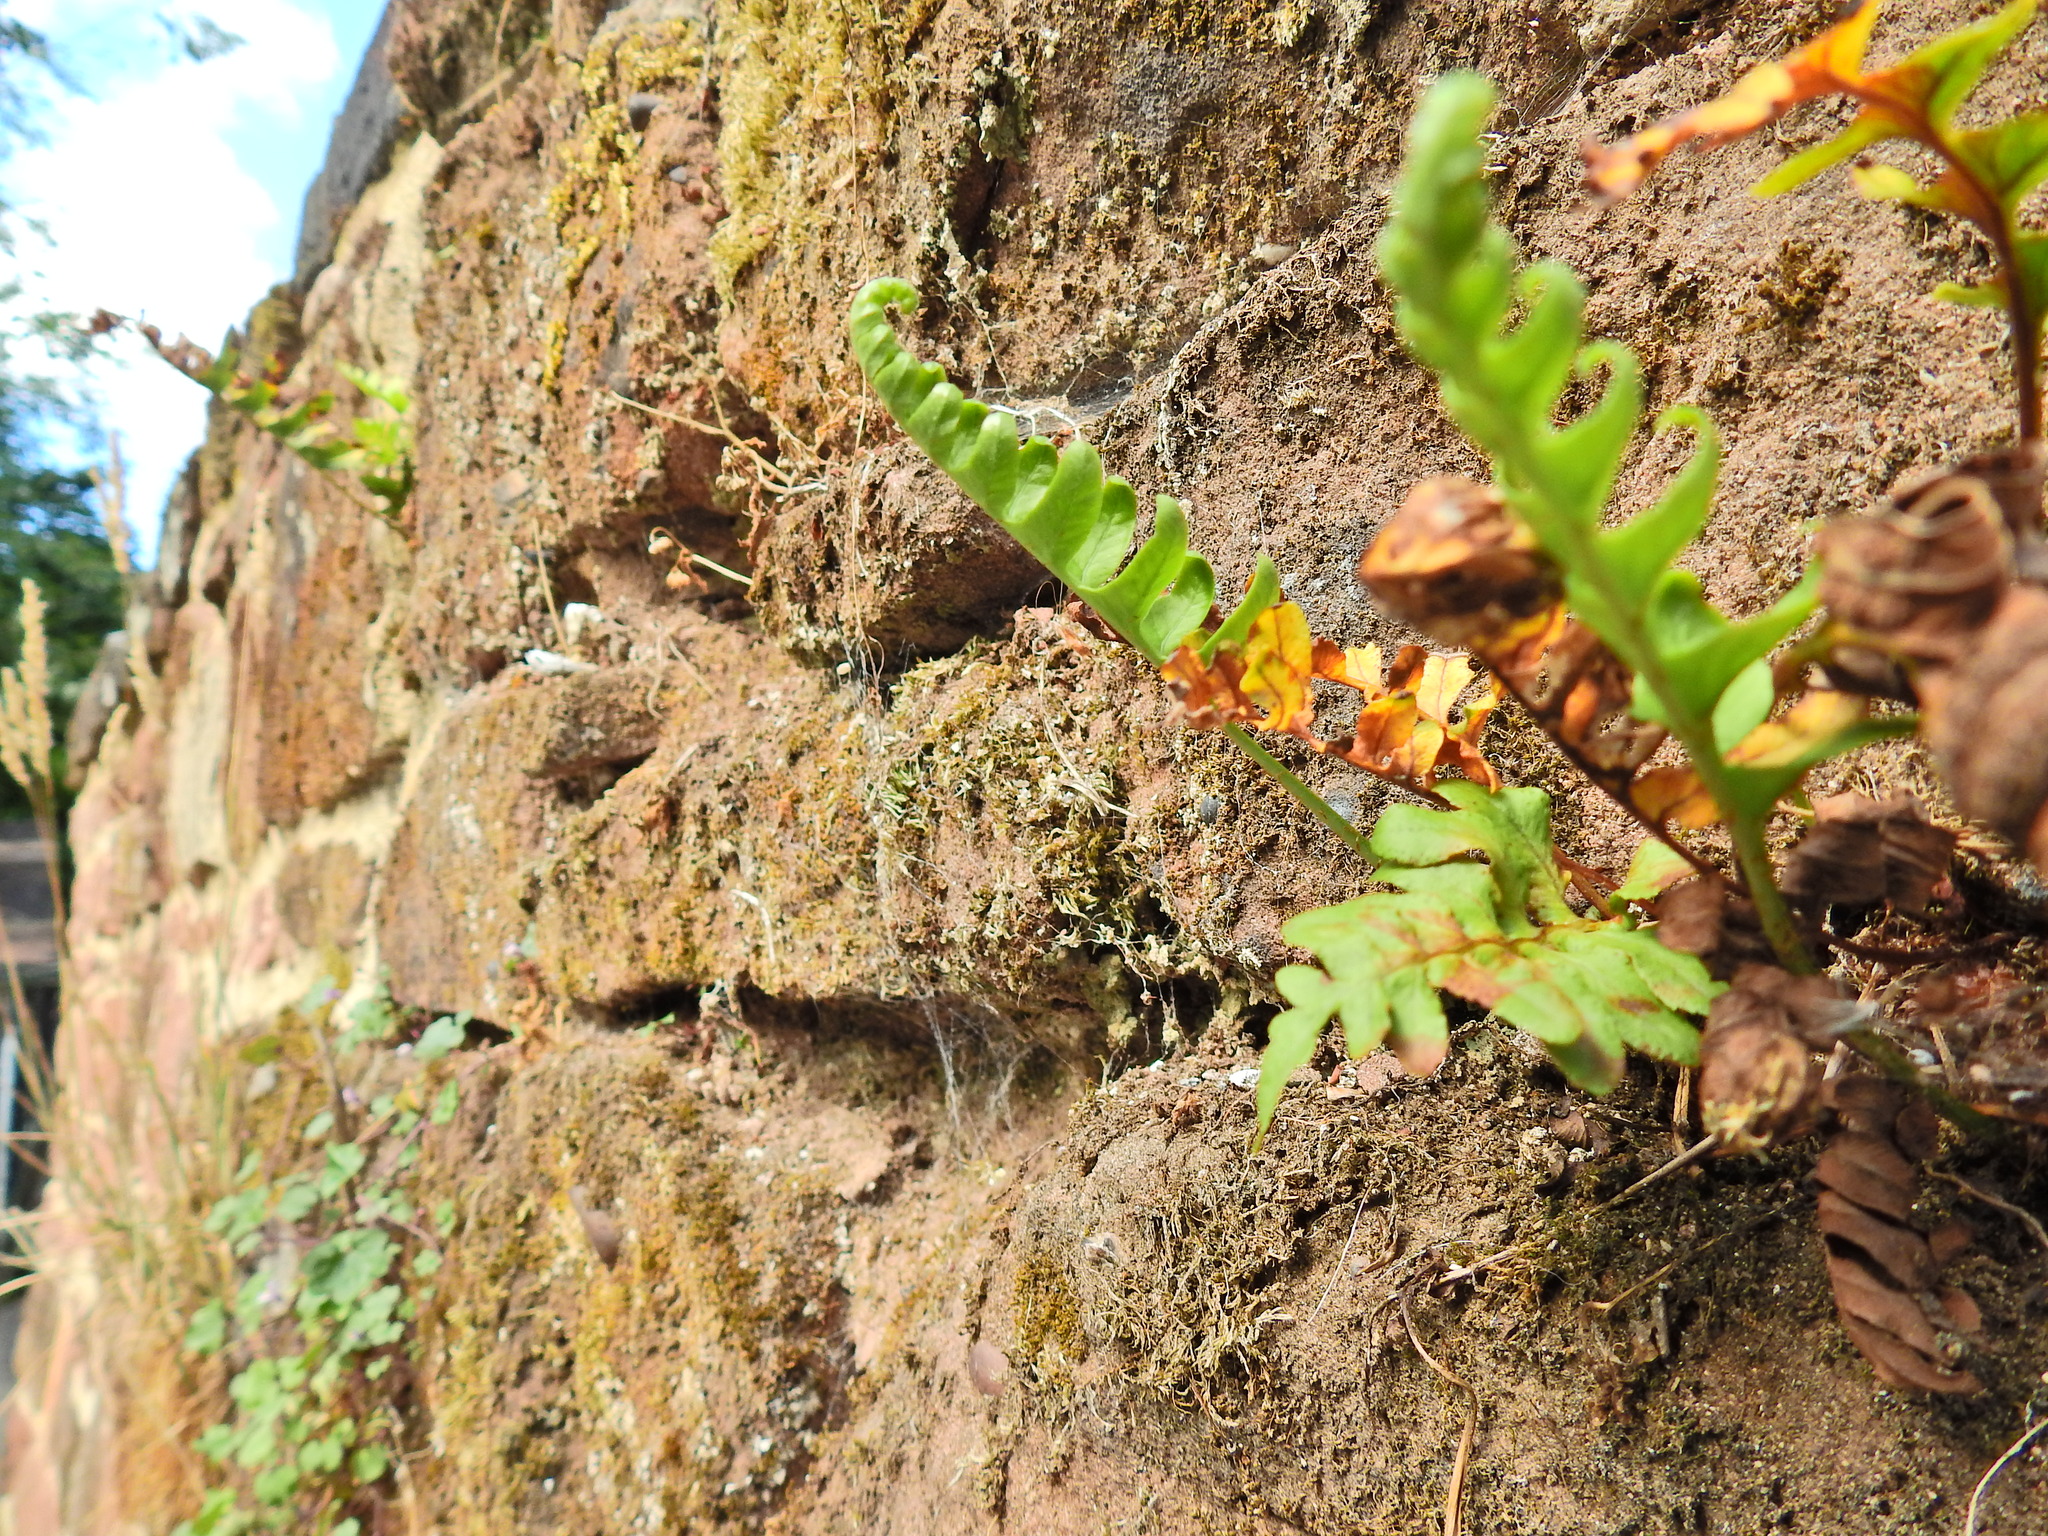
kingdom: Plantae
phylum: Tracheophyta
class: Polypodiopsida
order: Polypodiales
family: Polypodiaceae
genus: Polypodium
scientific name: Polypodium vulgare
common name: Common polypody
